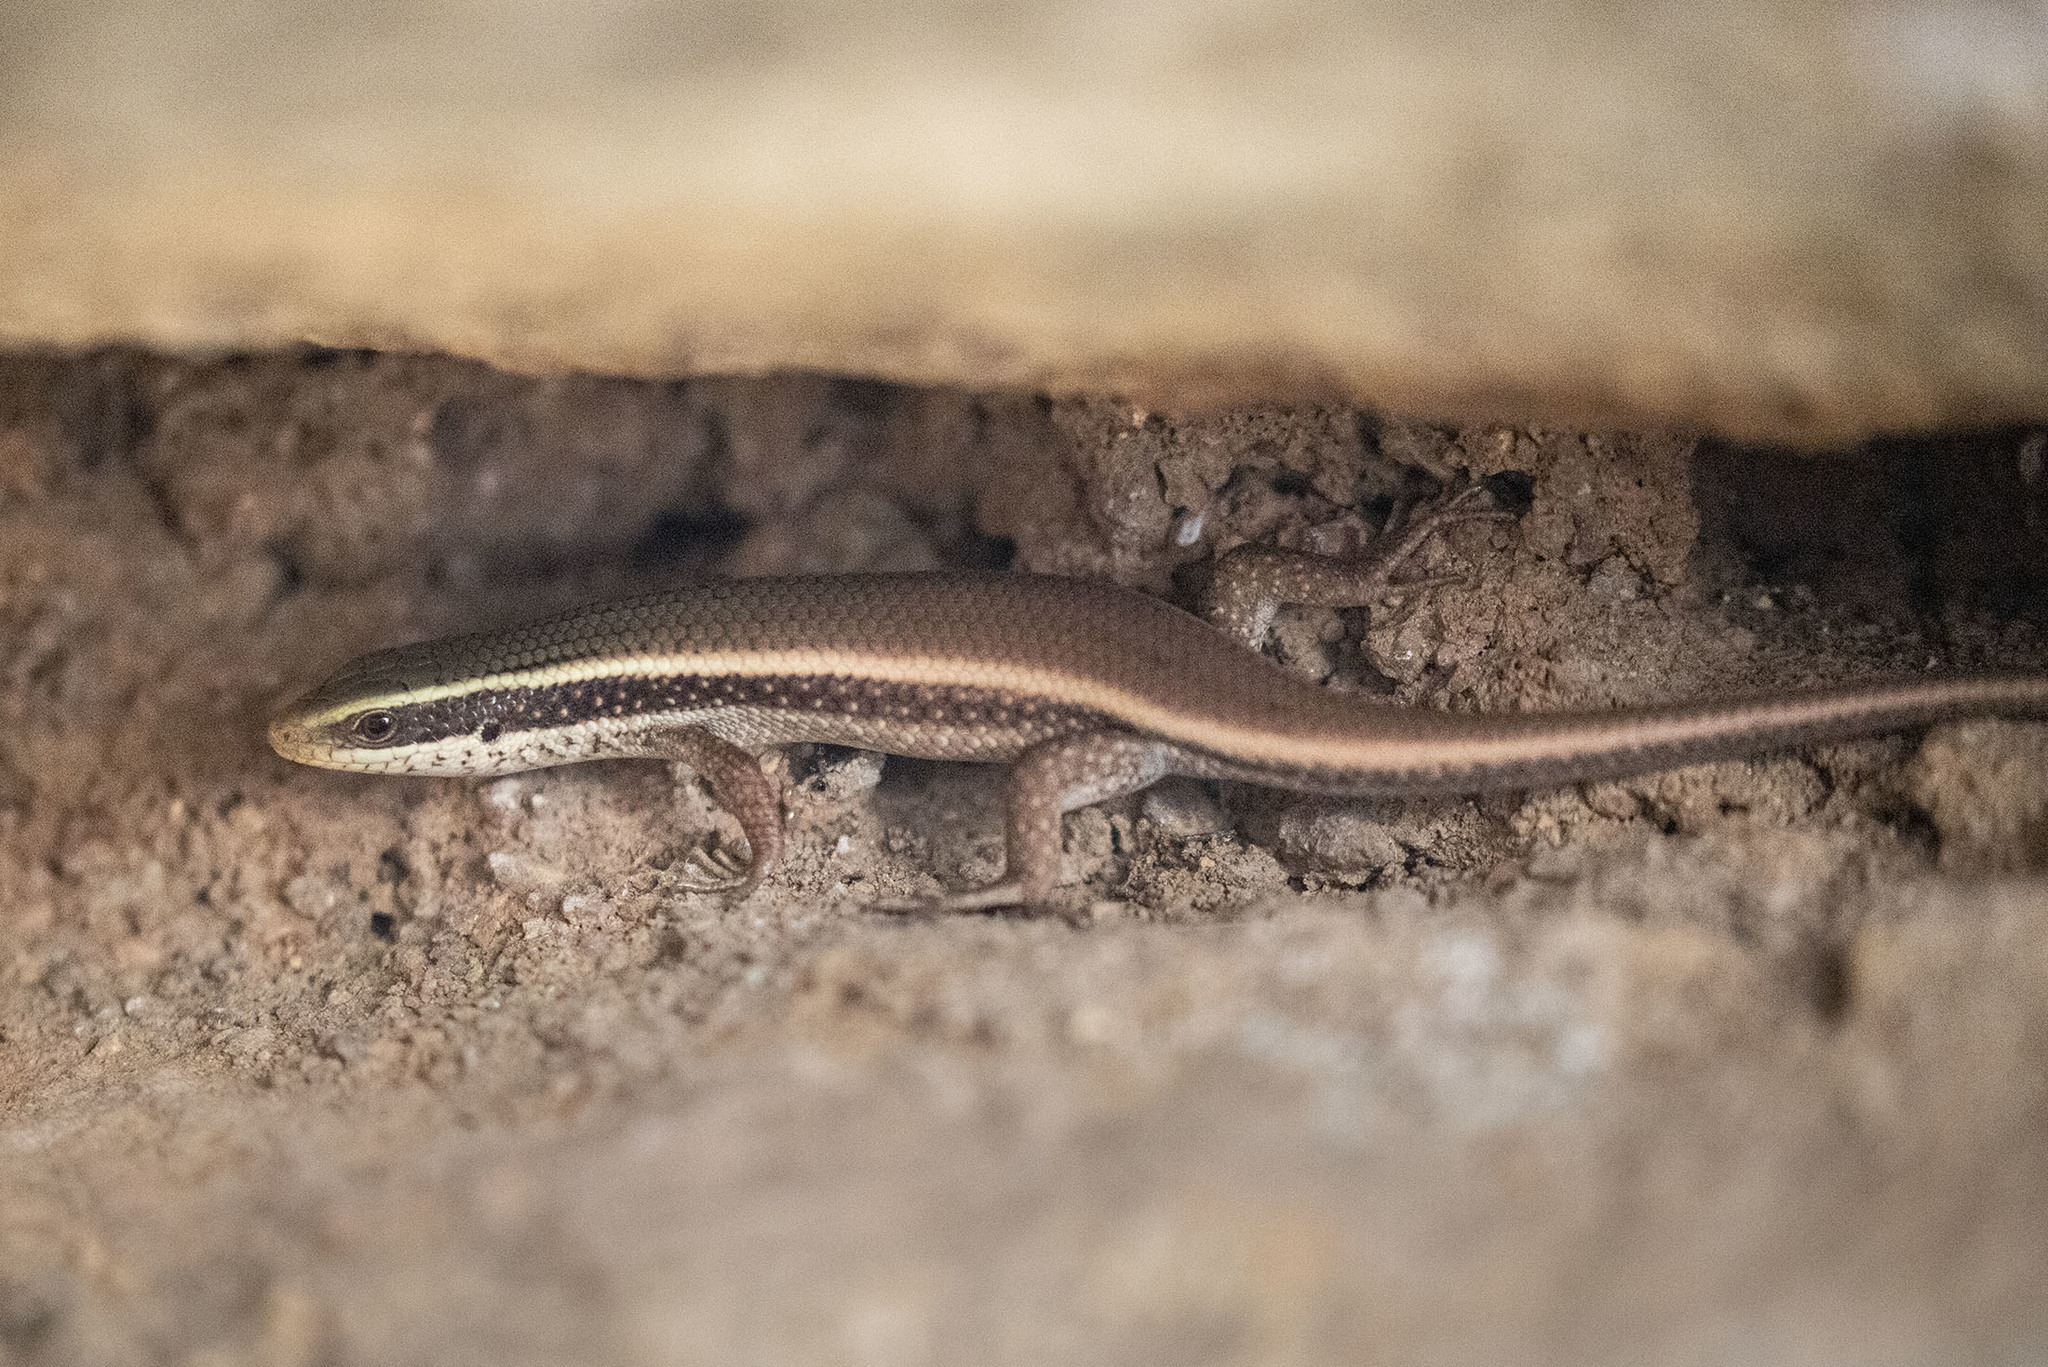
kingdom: Animalia
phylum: Chordata
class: Squamata
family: Scincidae
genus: Eutropis
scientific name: Eutropis carinata
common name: Keeled indian mabuya
